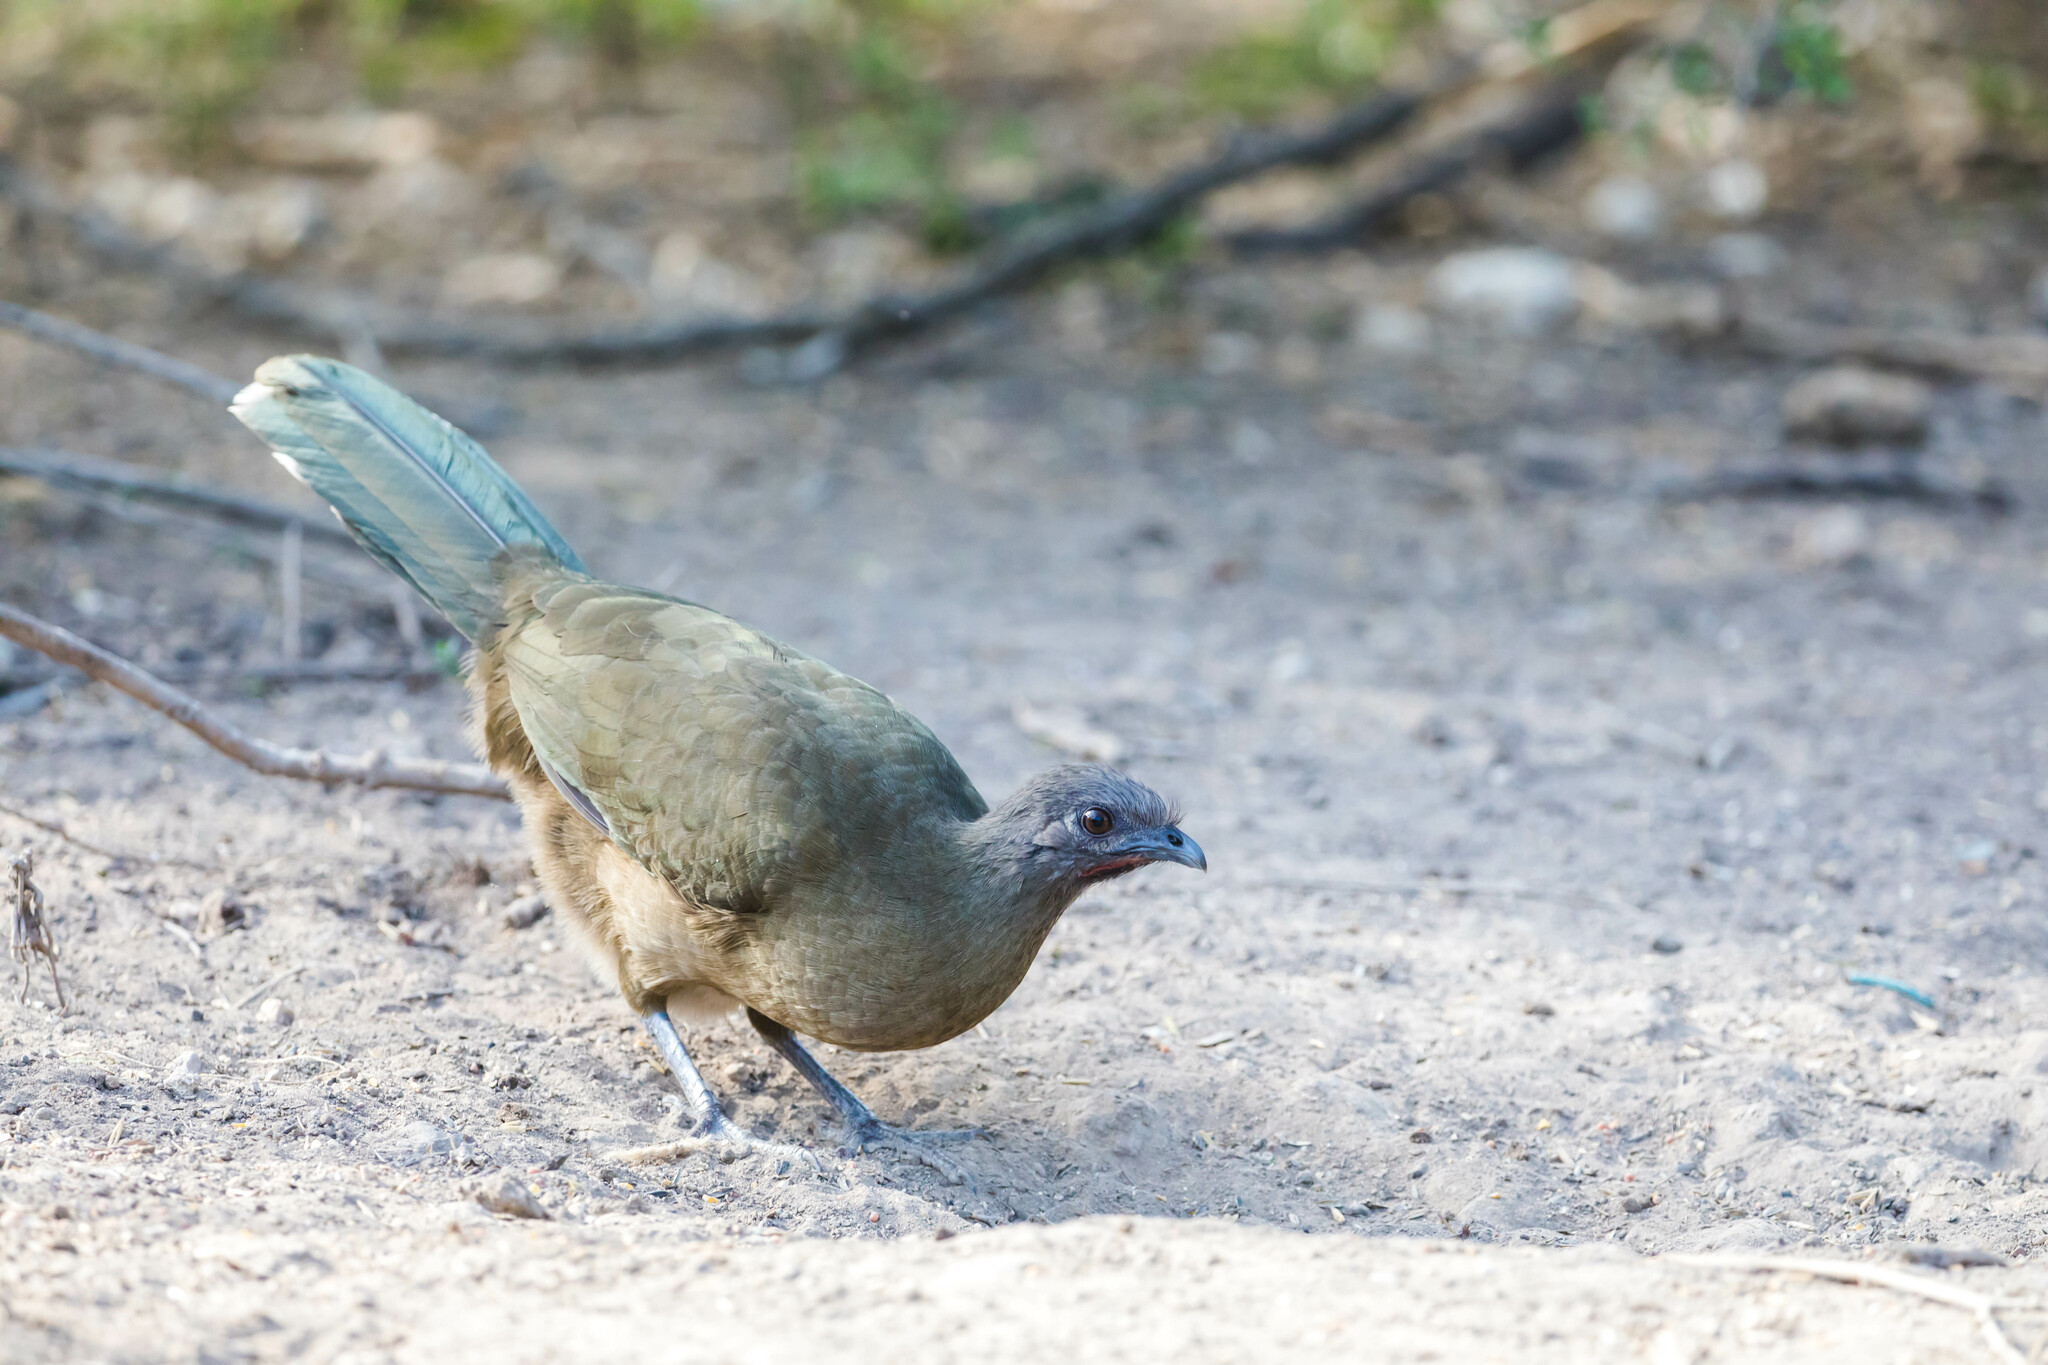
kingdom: Animalia
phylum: Chordata
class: Aves
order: Galliformes
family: Cracidae
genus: Ortalis
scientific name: Ortalis vetula
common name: Plain chachalaca
